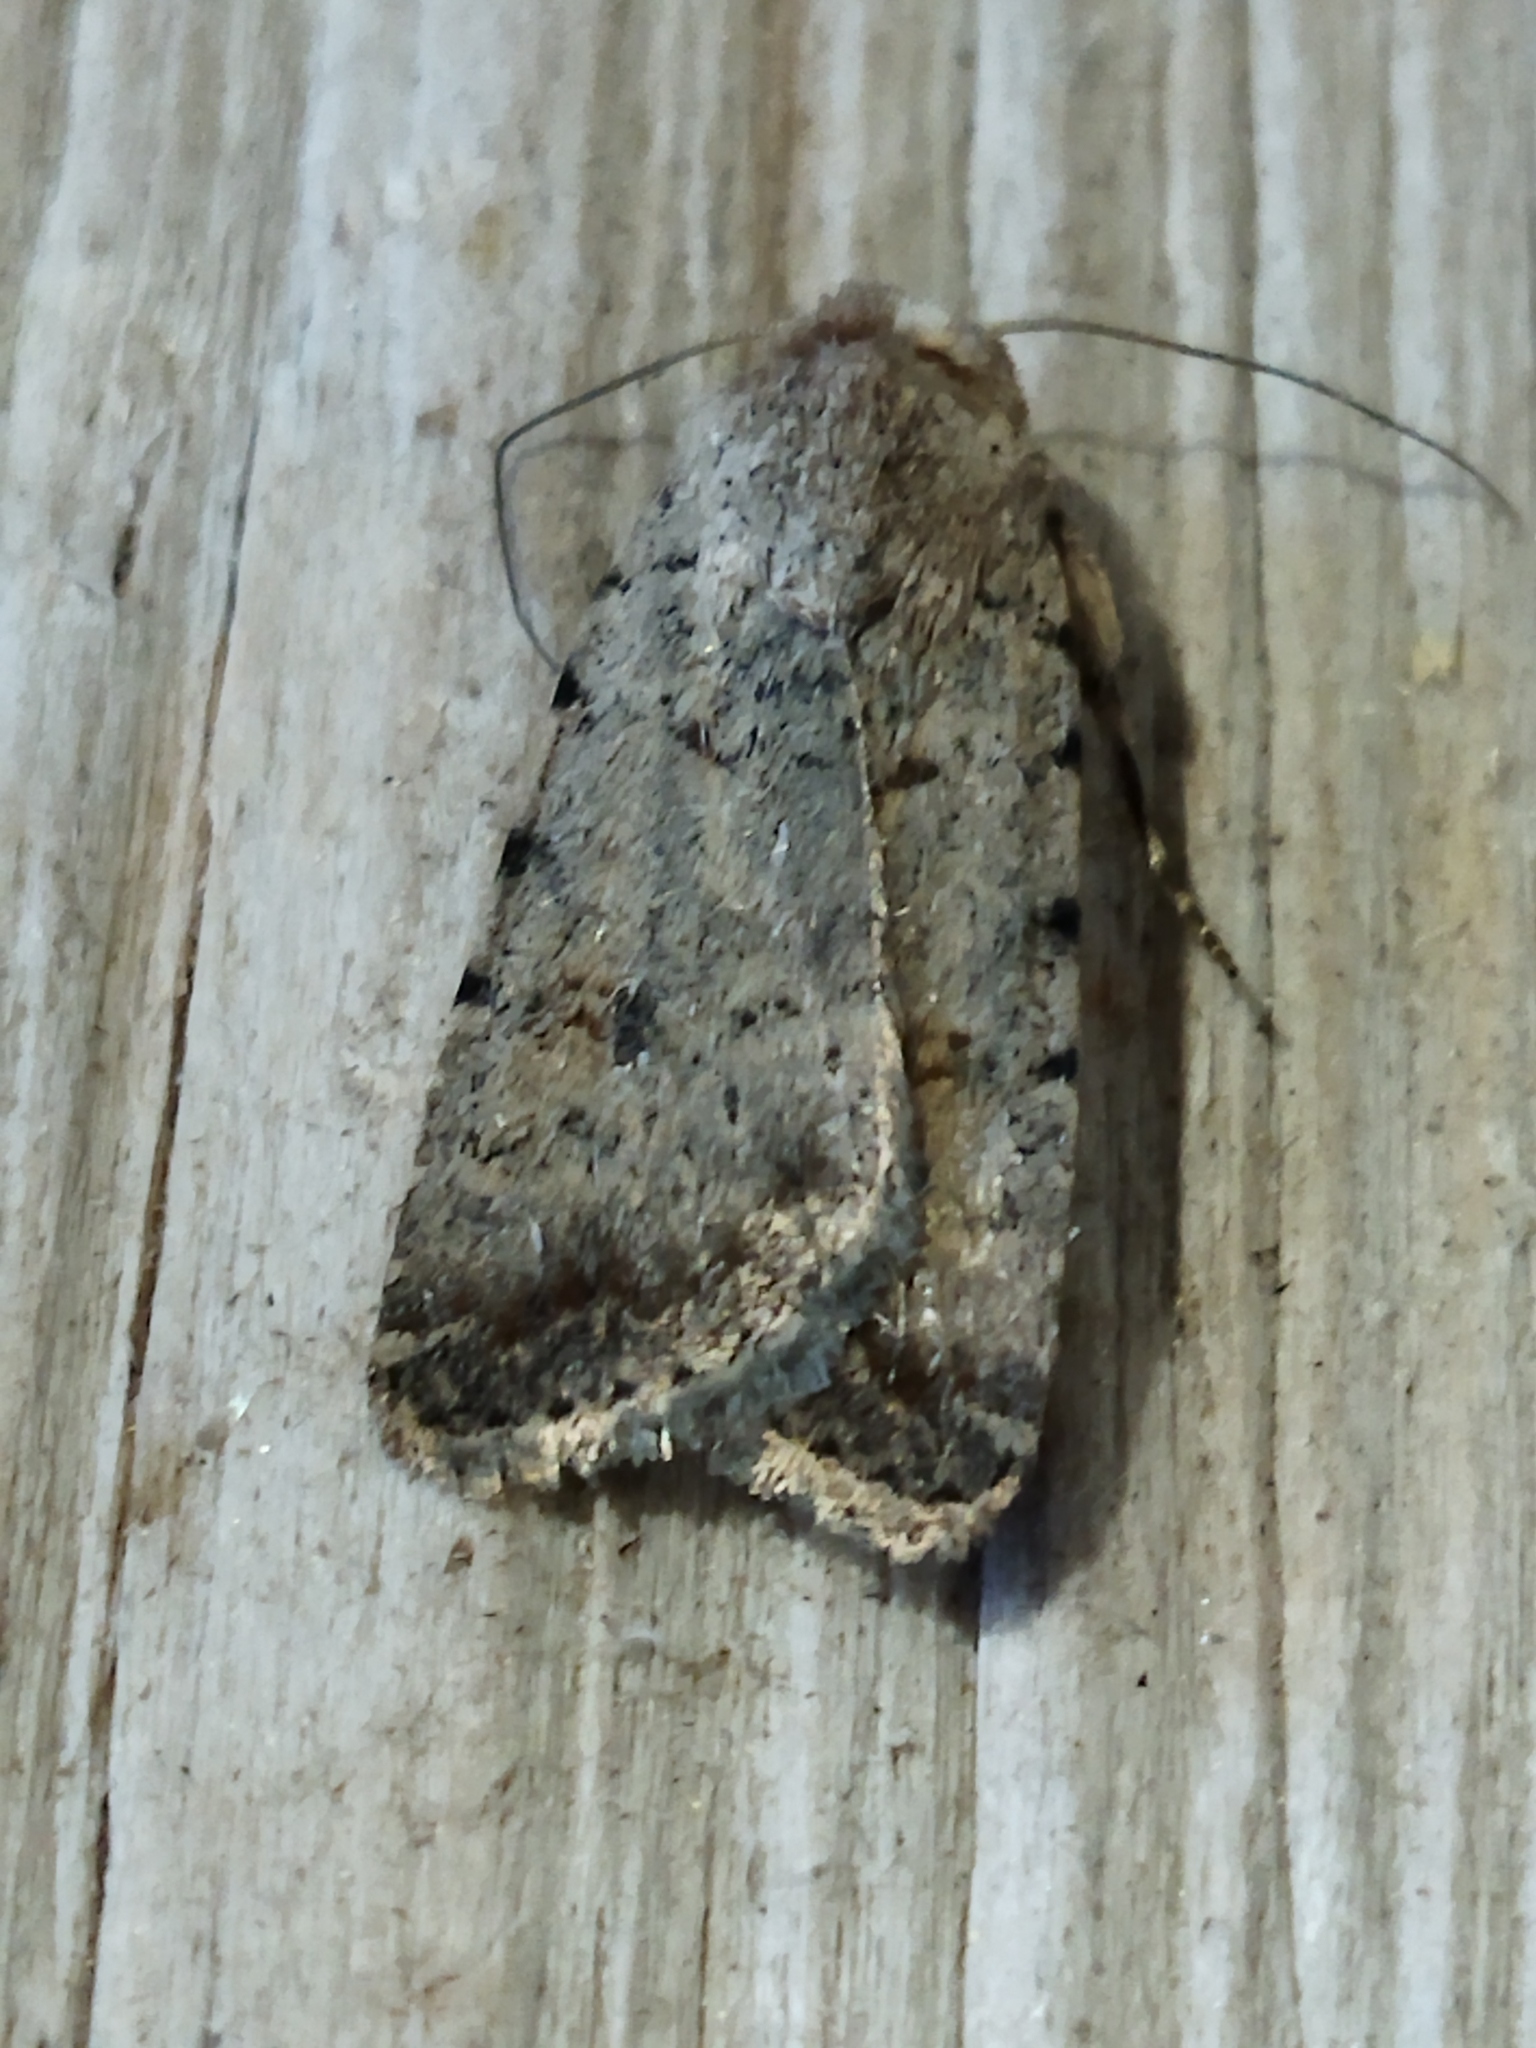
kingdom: Animalia
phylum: Arthropoda
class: Insecta
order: Lepidoptera
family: Noctuidae
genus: Caradrina
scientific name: Caradrina clavipalpis
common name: Pale mottled willow
